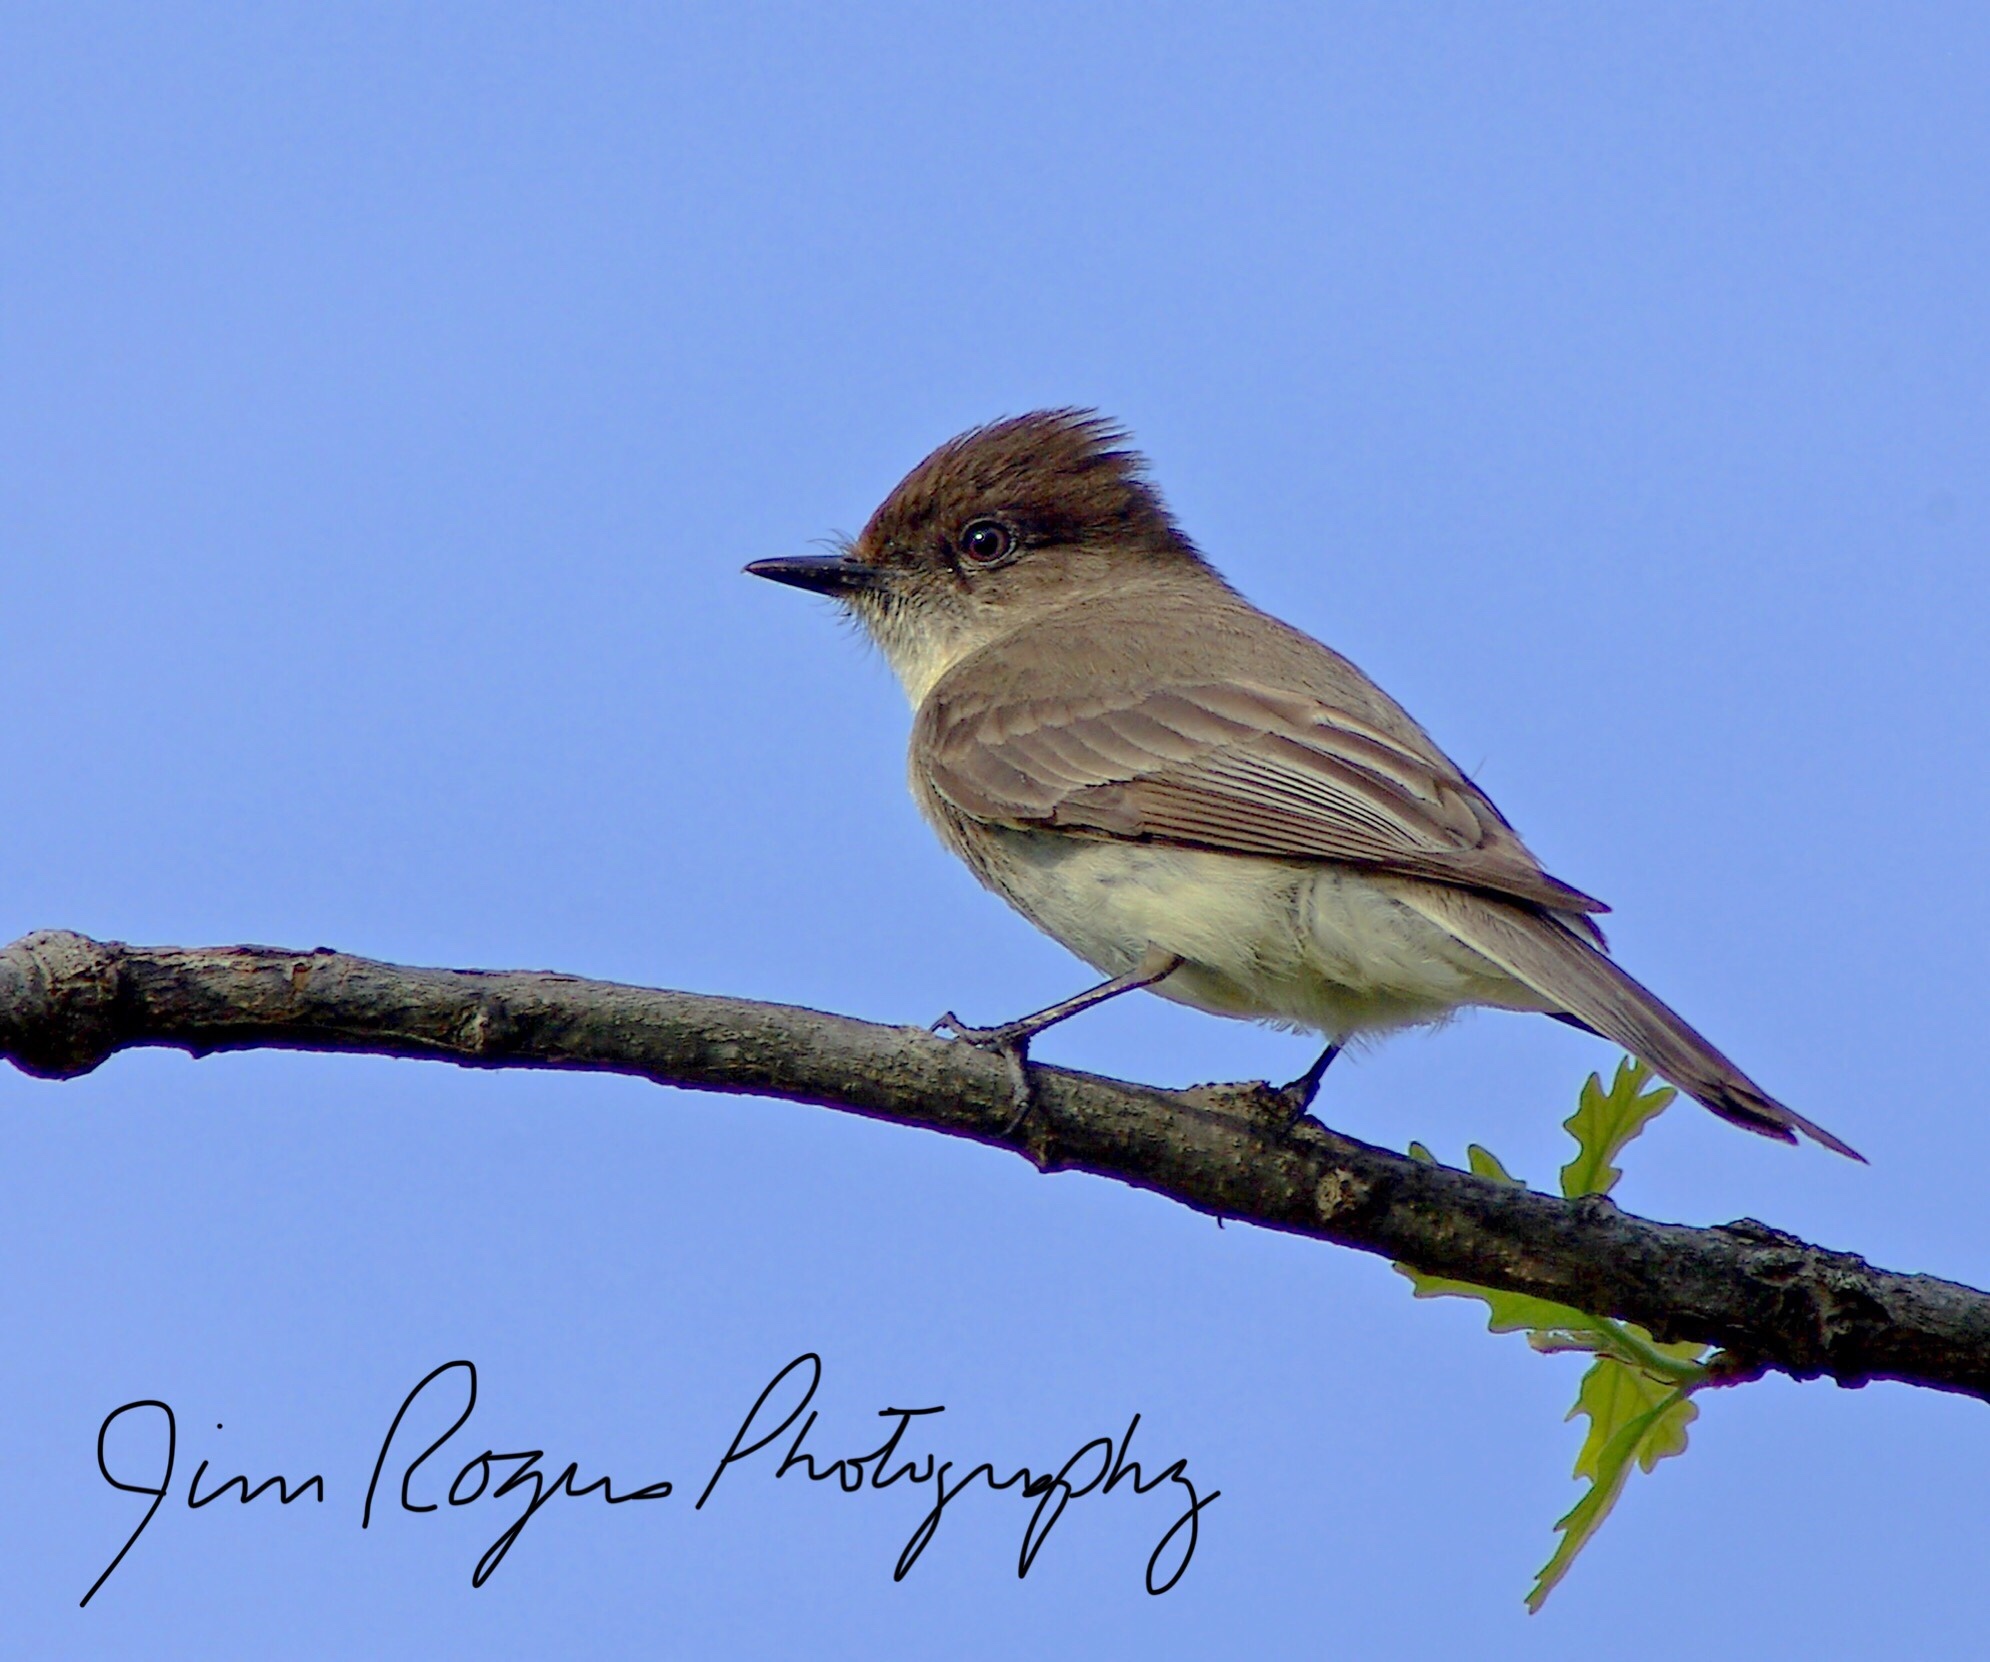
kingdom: Animalia
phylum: Chordata
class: Aves
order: Passeriformes
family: Tyrannidae
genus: Sayornis
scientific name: Sayornis phoebe
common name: Eastern phoebe
